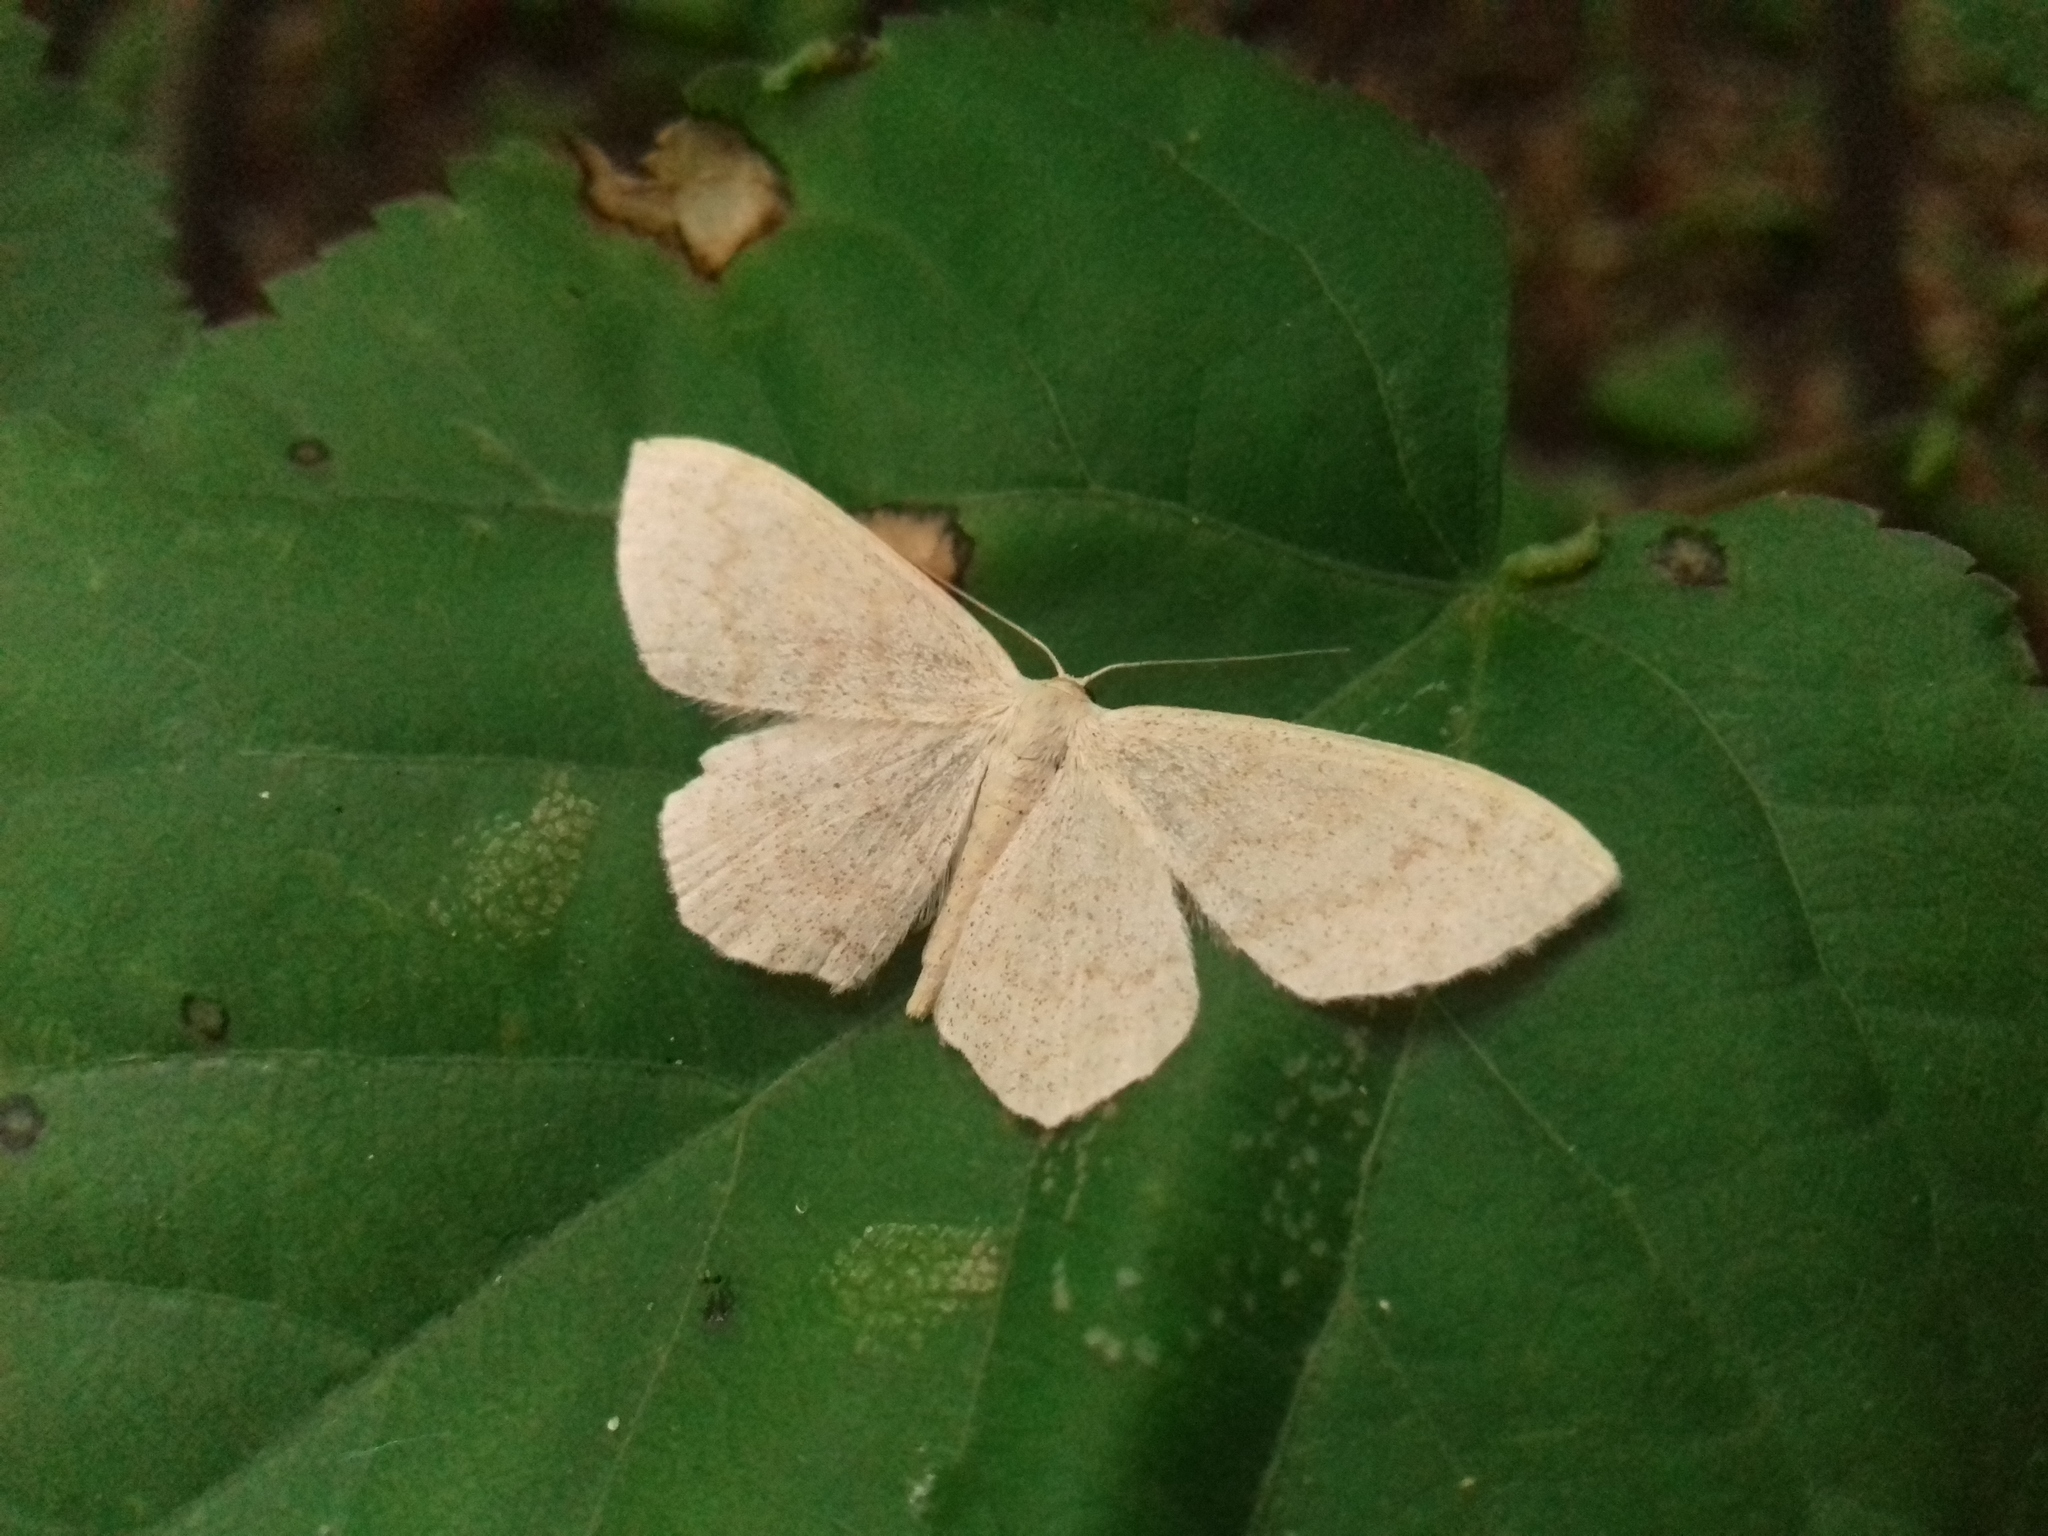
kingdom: Animalia
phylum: Arthropoda
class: Insecta
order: Lepidoptera
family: Geometridae
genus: Scopula
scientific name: Scopula floslactata
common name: Cream wave
